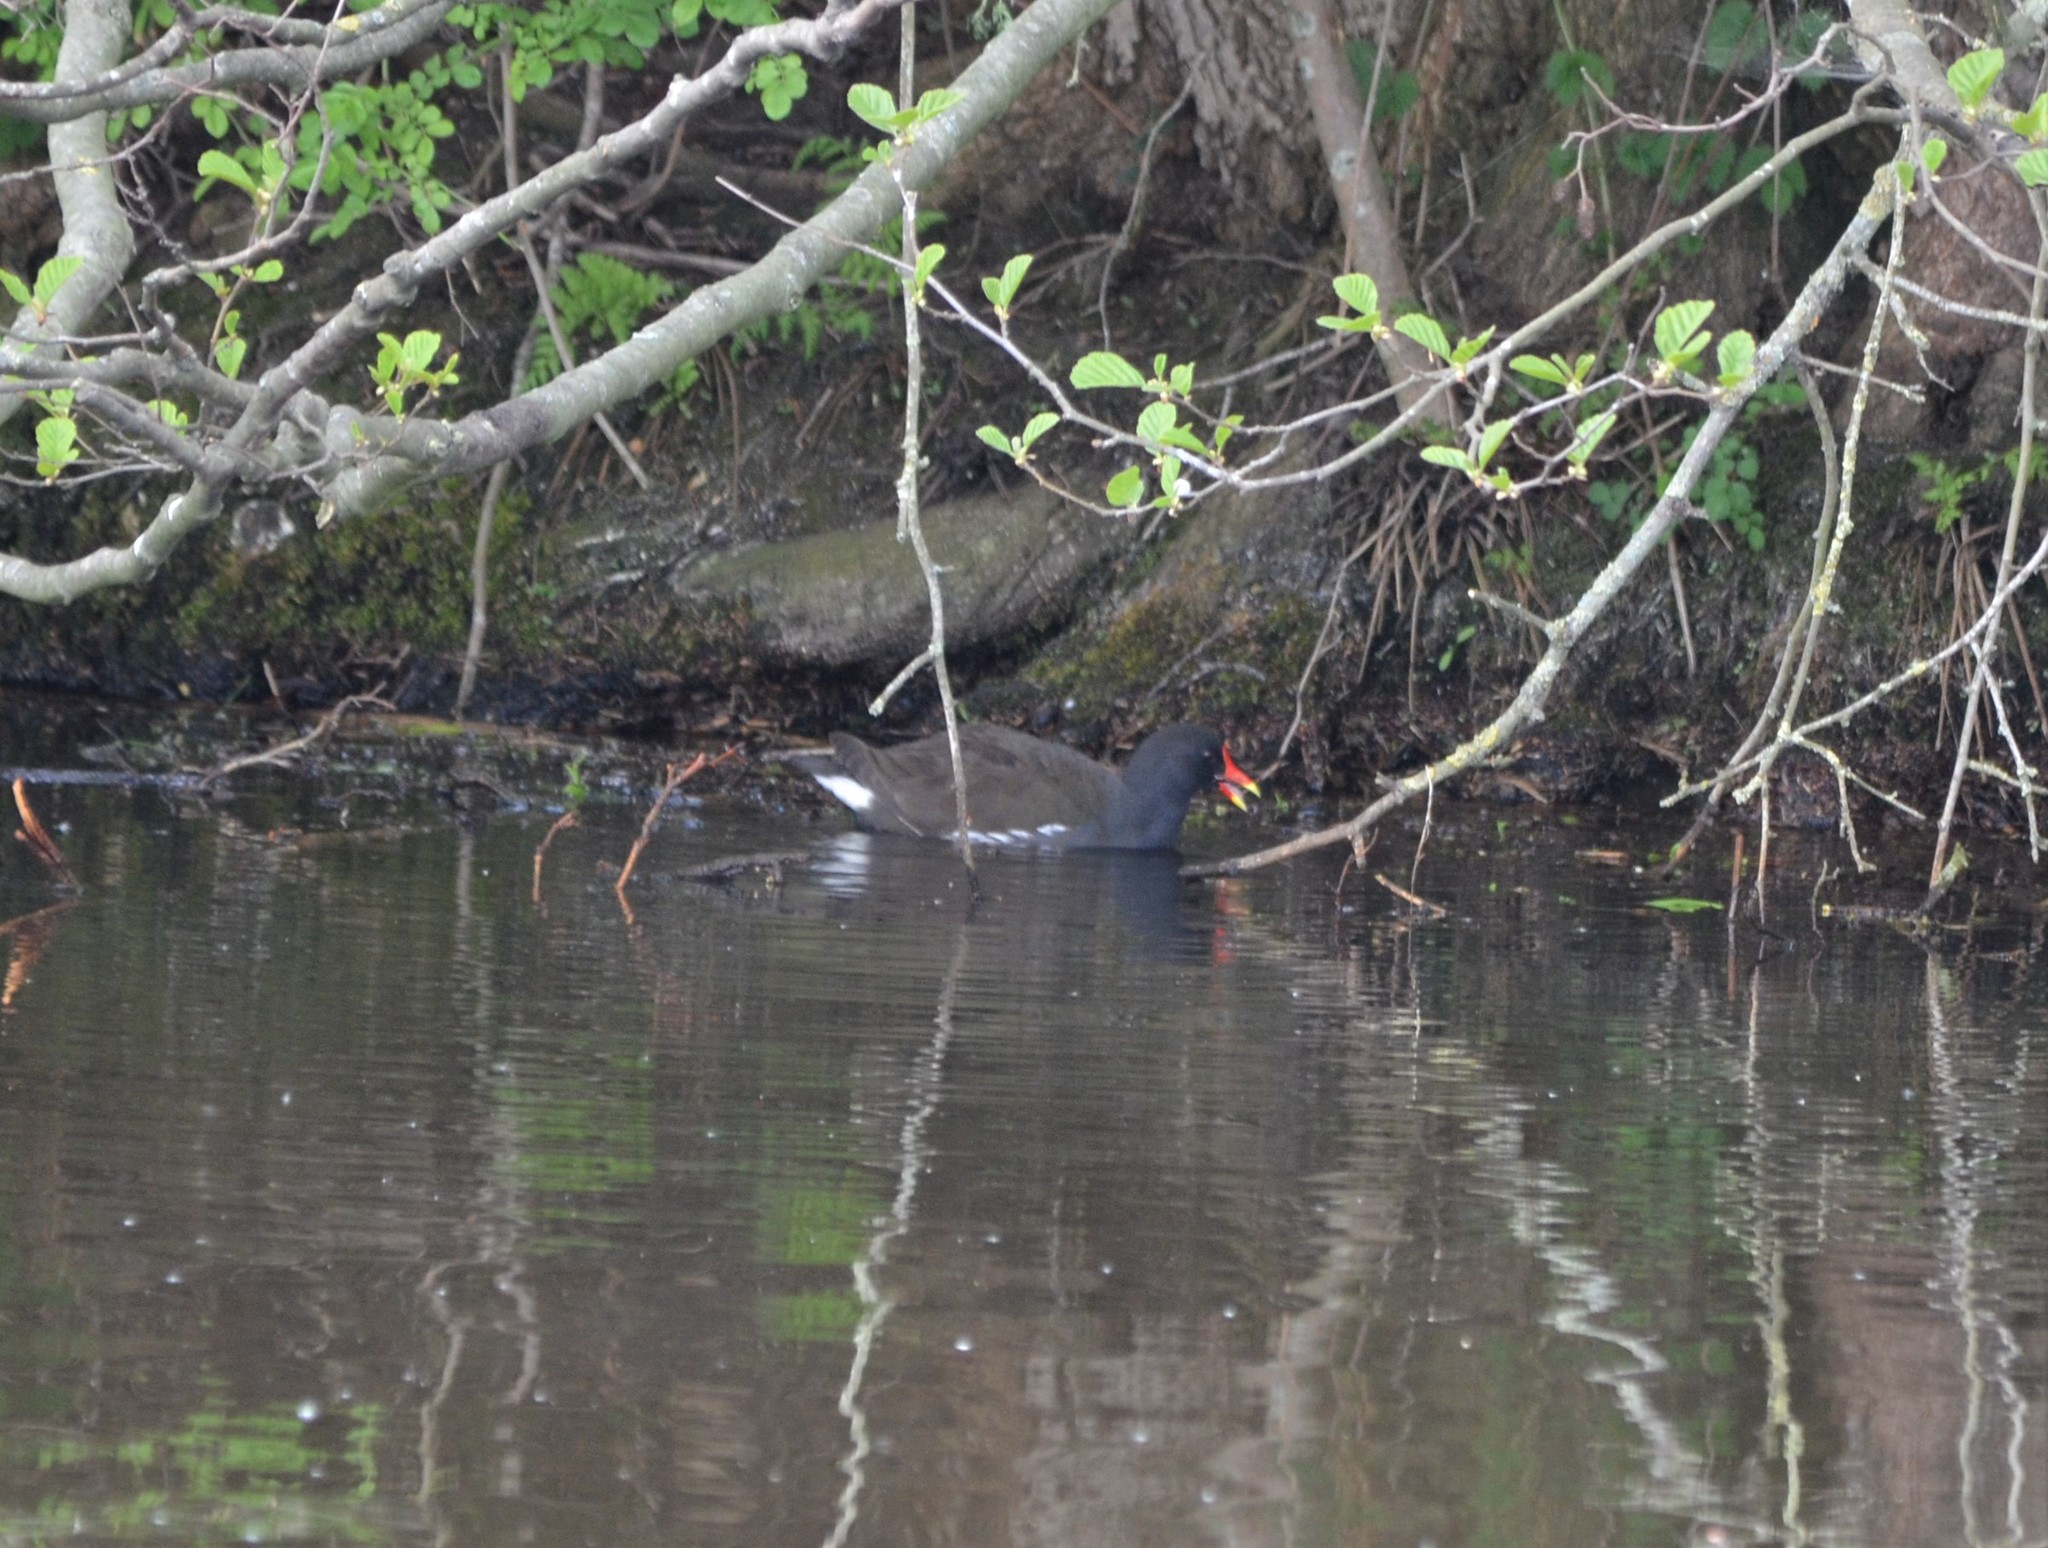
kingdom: Animalia
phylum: Chordata
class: Aves
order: Gruiformes
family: Rallidae
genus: Gallinula
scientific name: Gallinula chloropus
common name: Common moorhen
